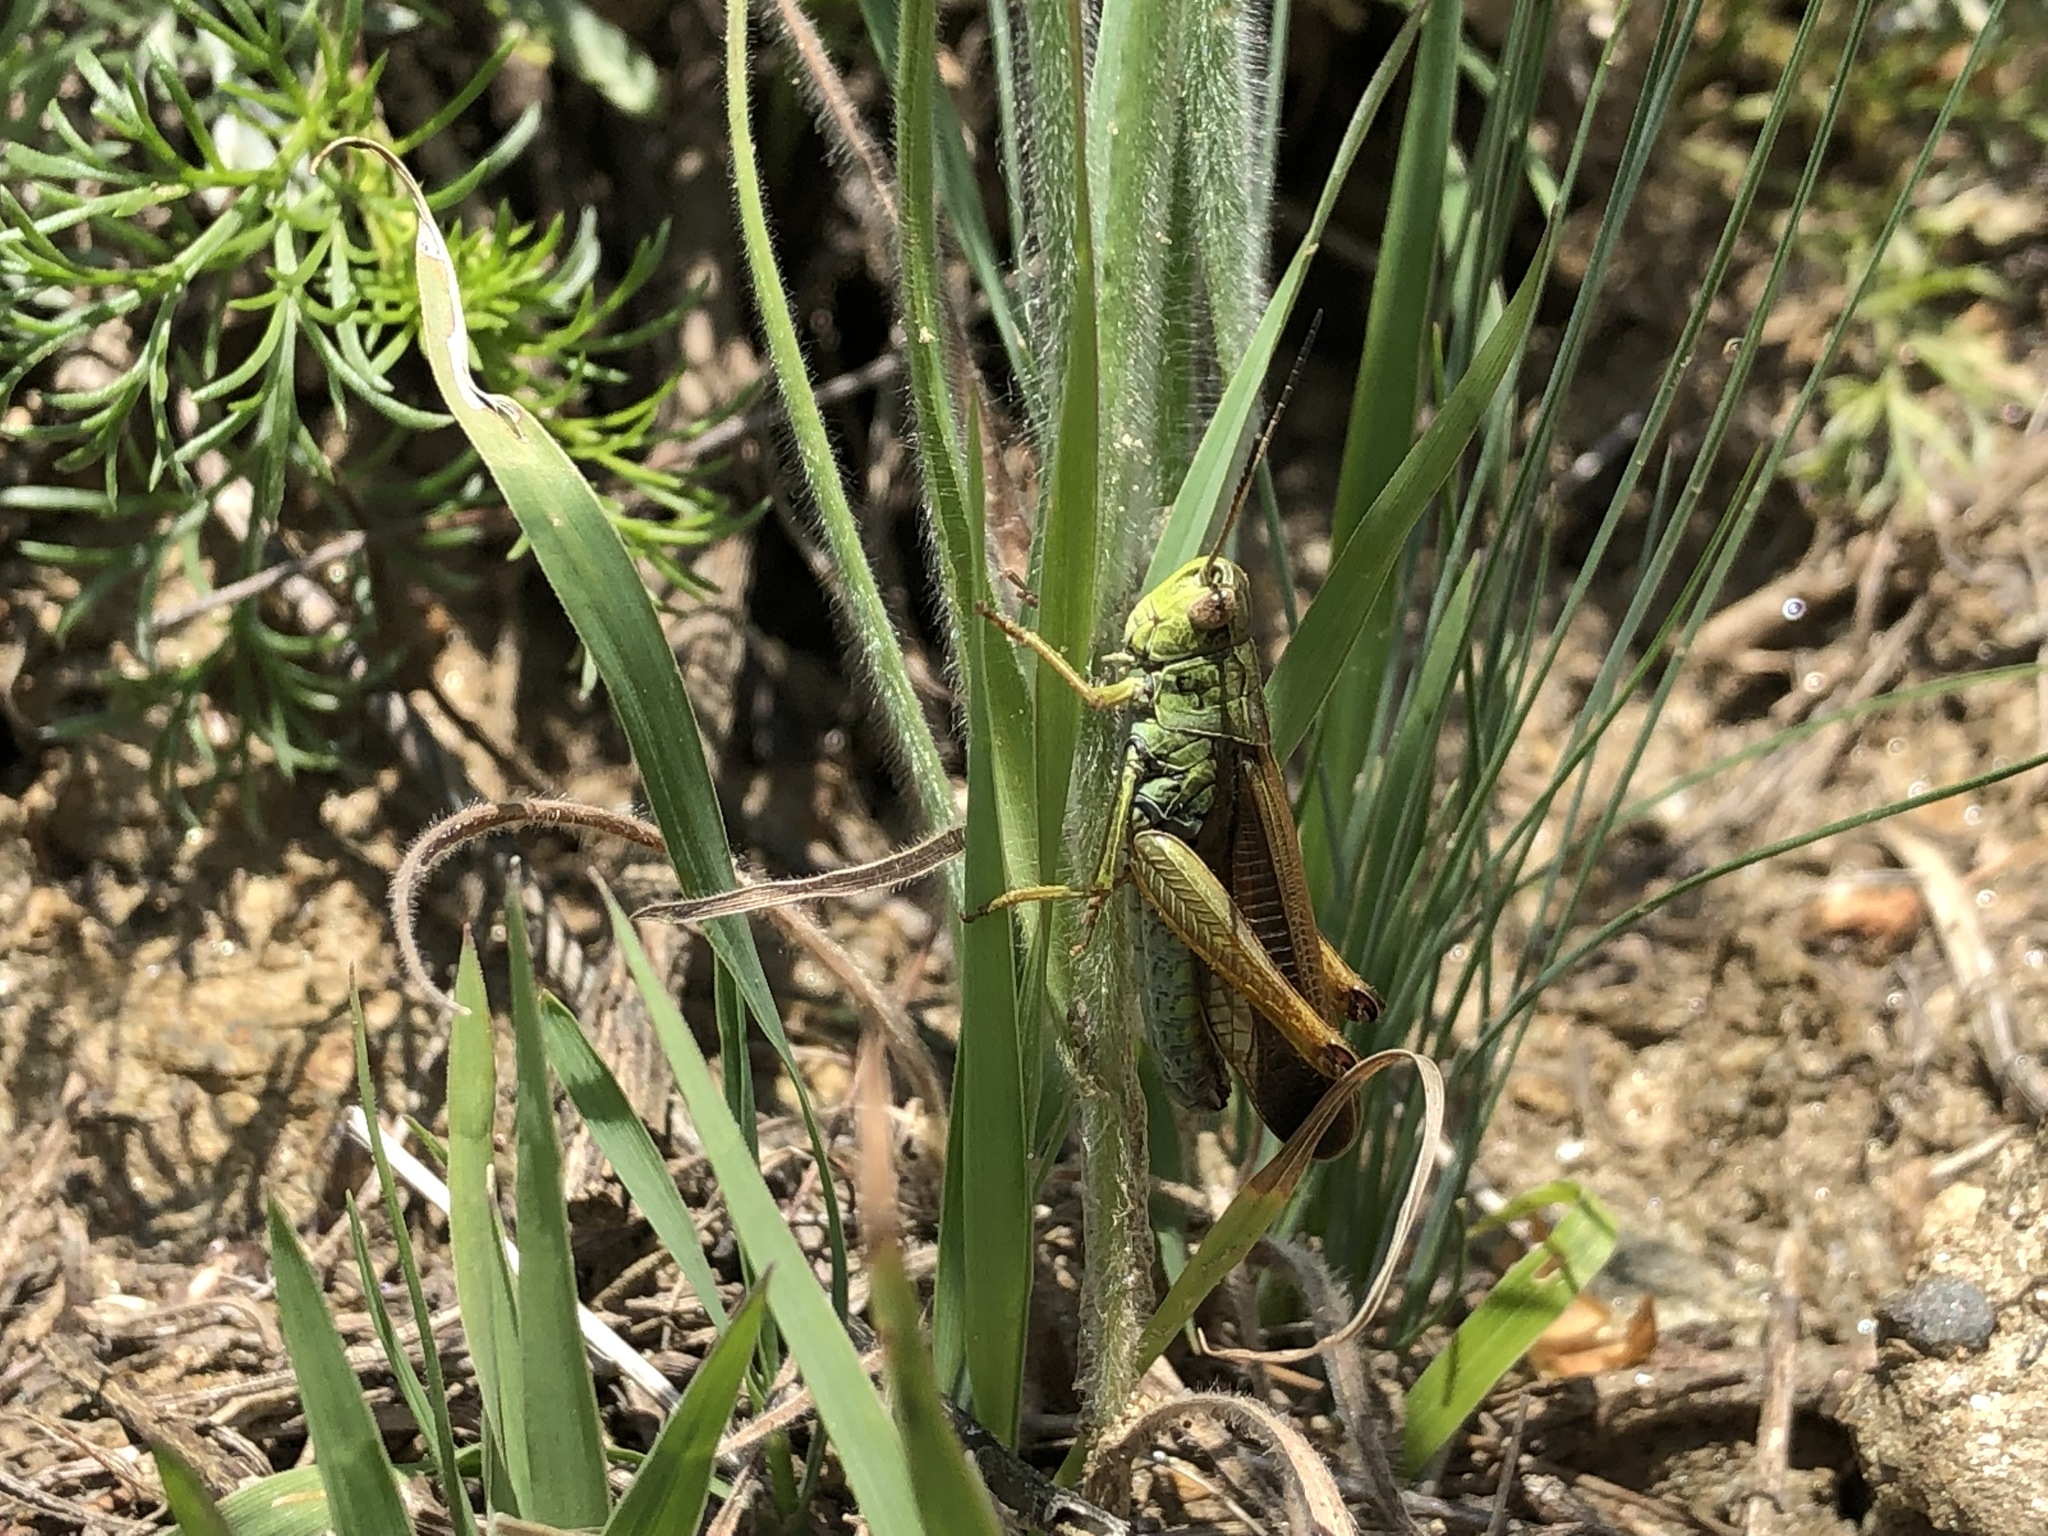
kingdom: Animalia
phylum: Arthropoda
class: Insecta
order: Orthoptera
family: Acrididae
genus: Stauroderus
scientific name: Stauroderus scalaris
